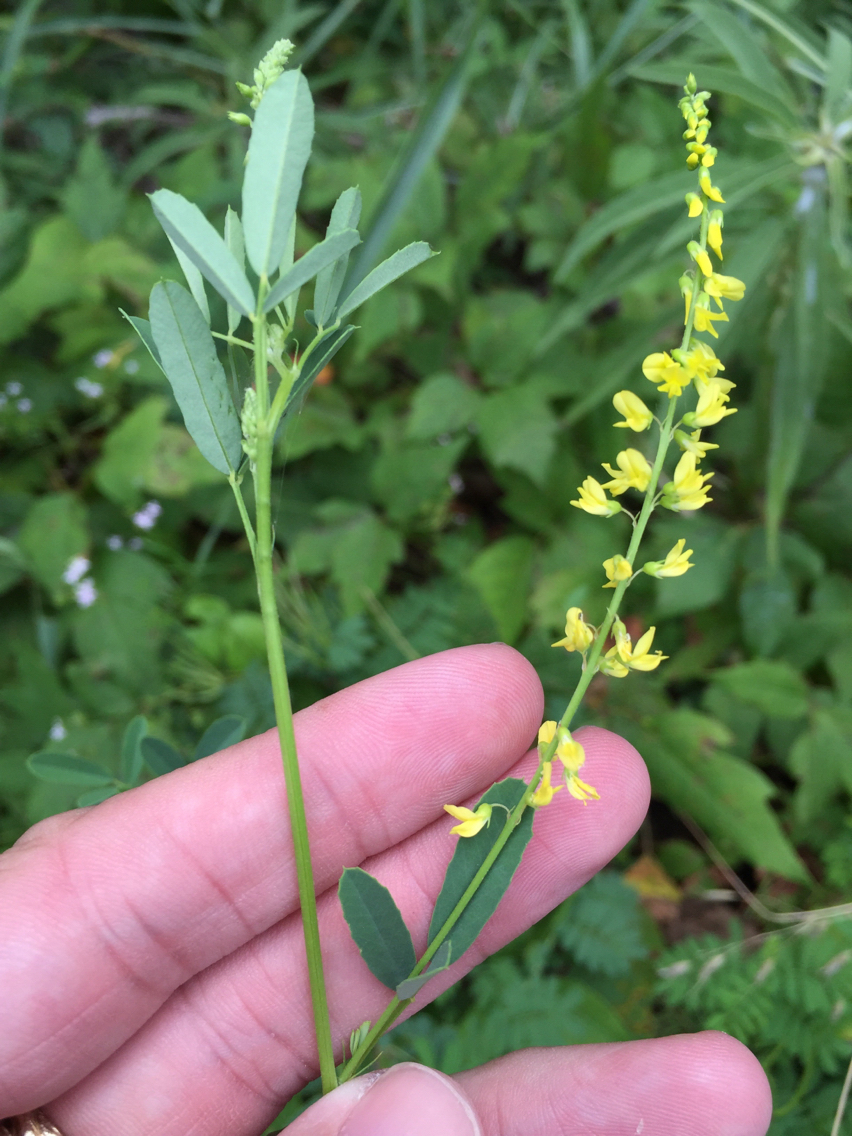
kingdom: Plantae
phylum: Tracheophyta
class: Magnoliopsida
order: Fabales
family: Fabaceae
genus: Melilotus
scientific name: Melilotus officinalis
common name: Sweetclover
